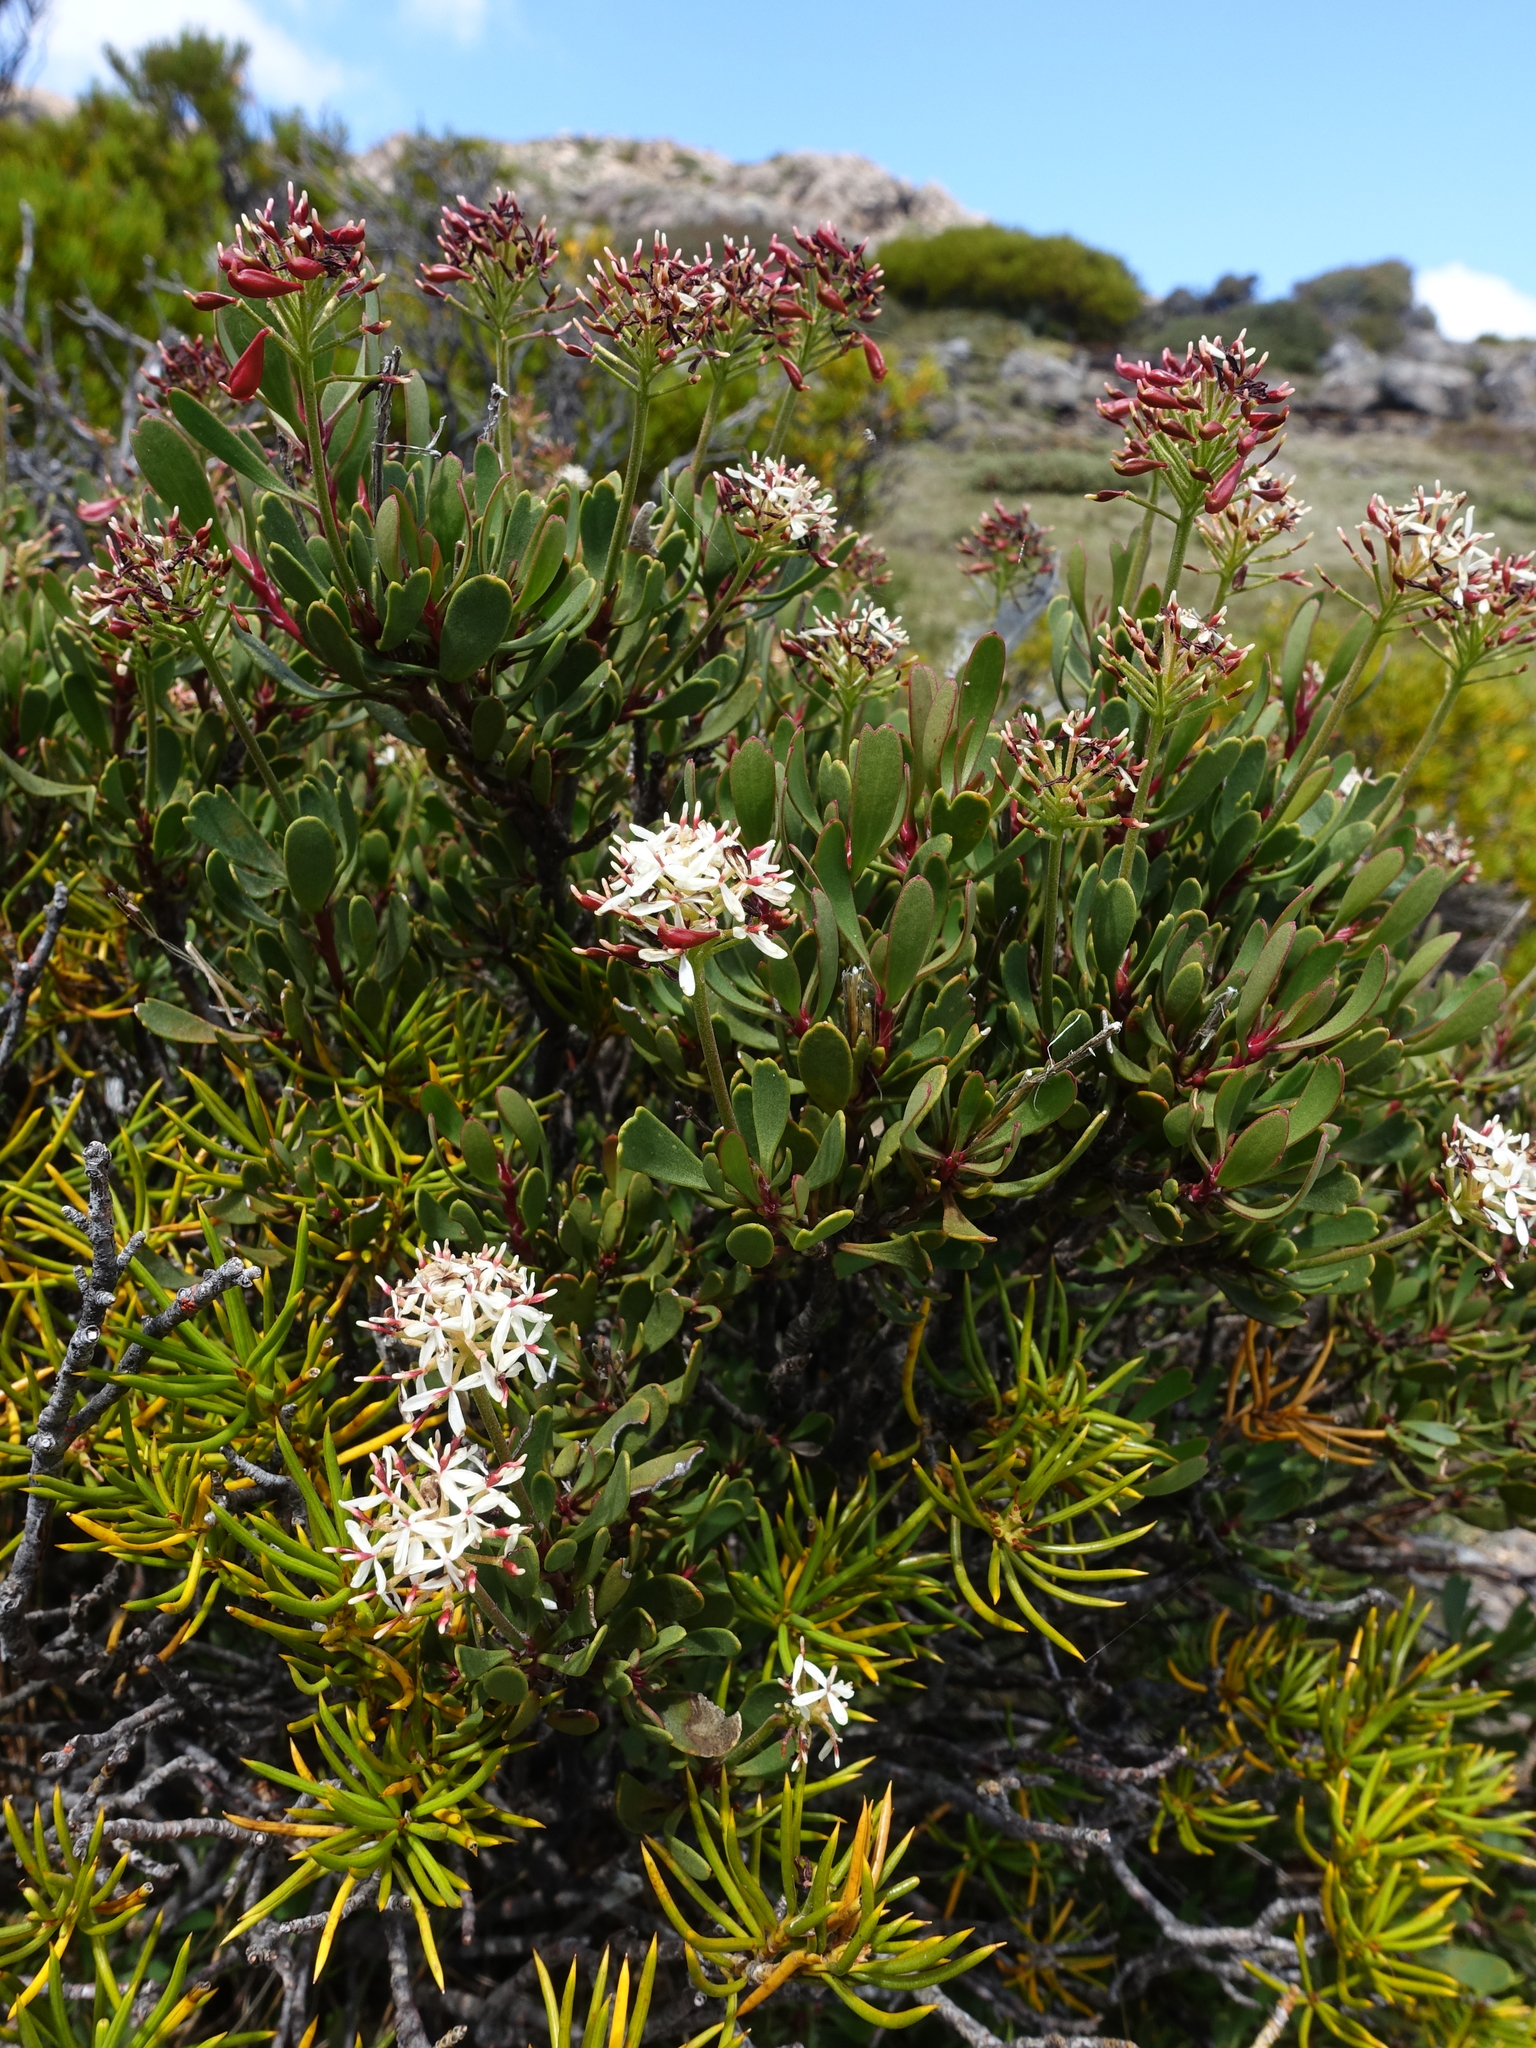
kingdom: Plantae
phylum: Tracheophyta
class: Magnoliopsida
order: Proteales
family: Proteaceae
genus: Bellendena
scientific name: Bellendena montana
